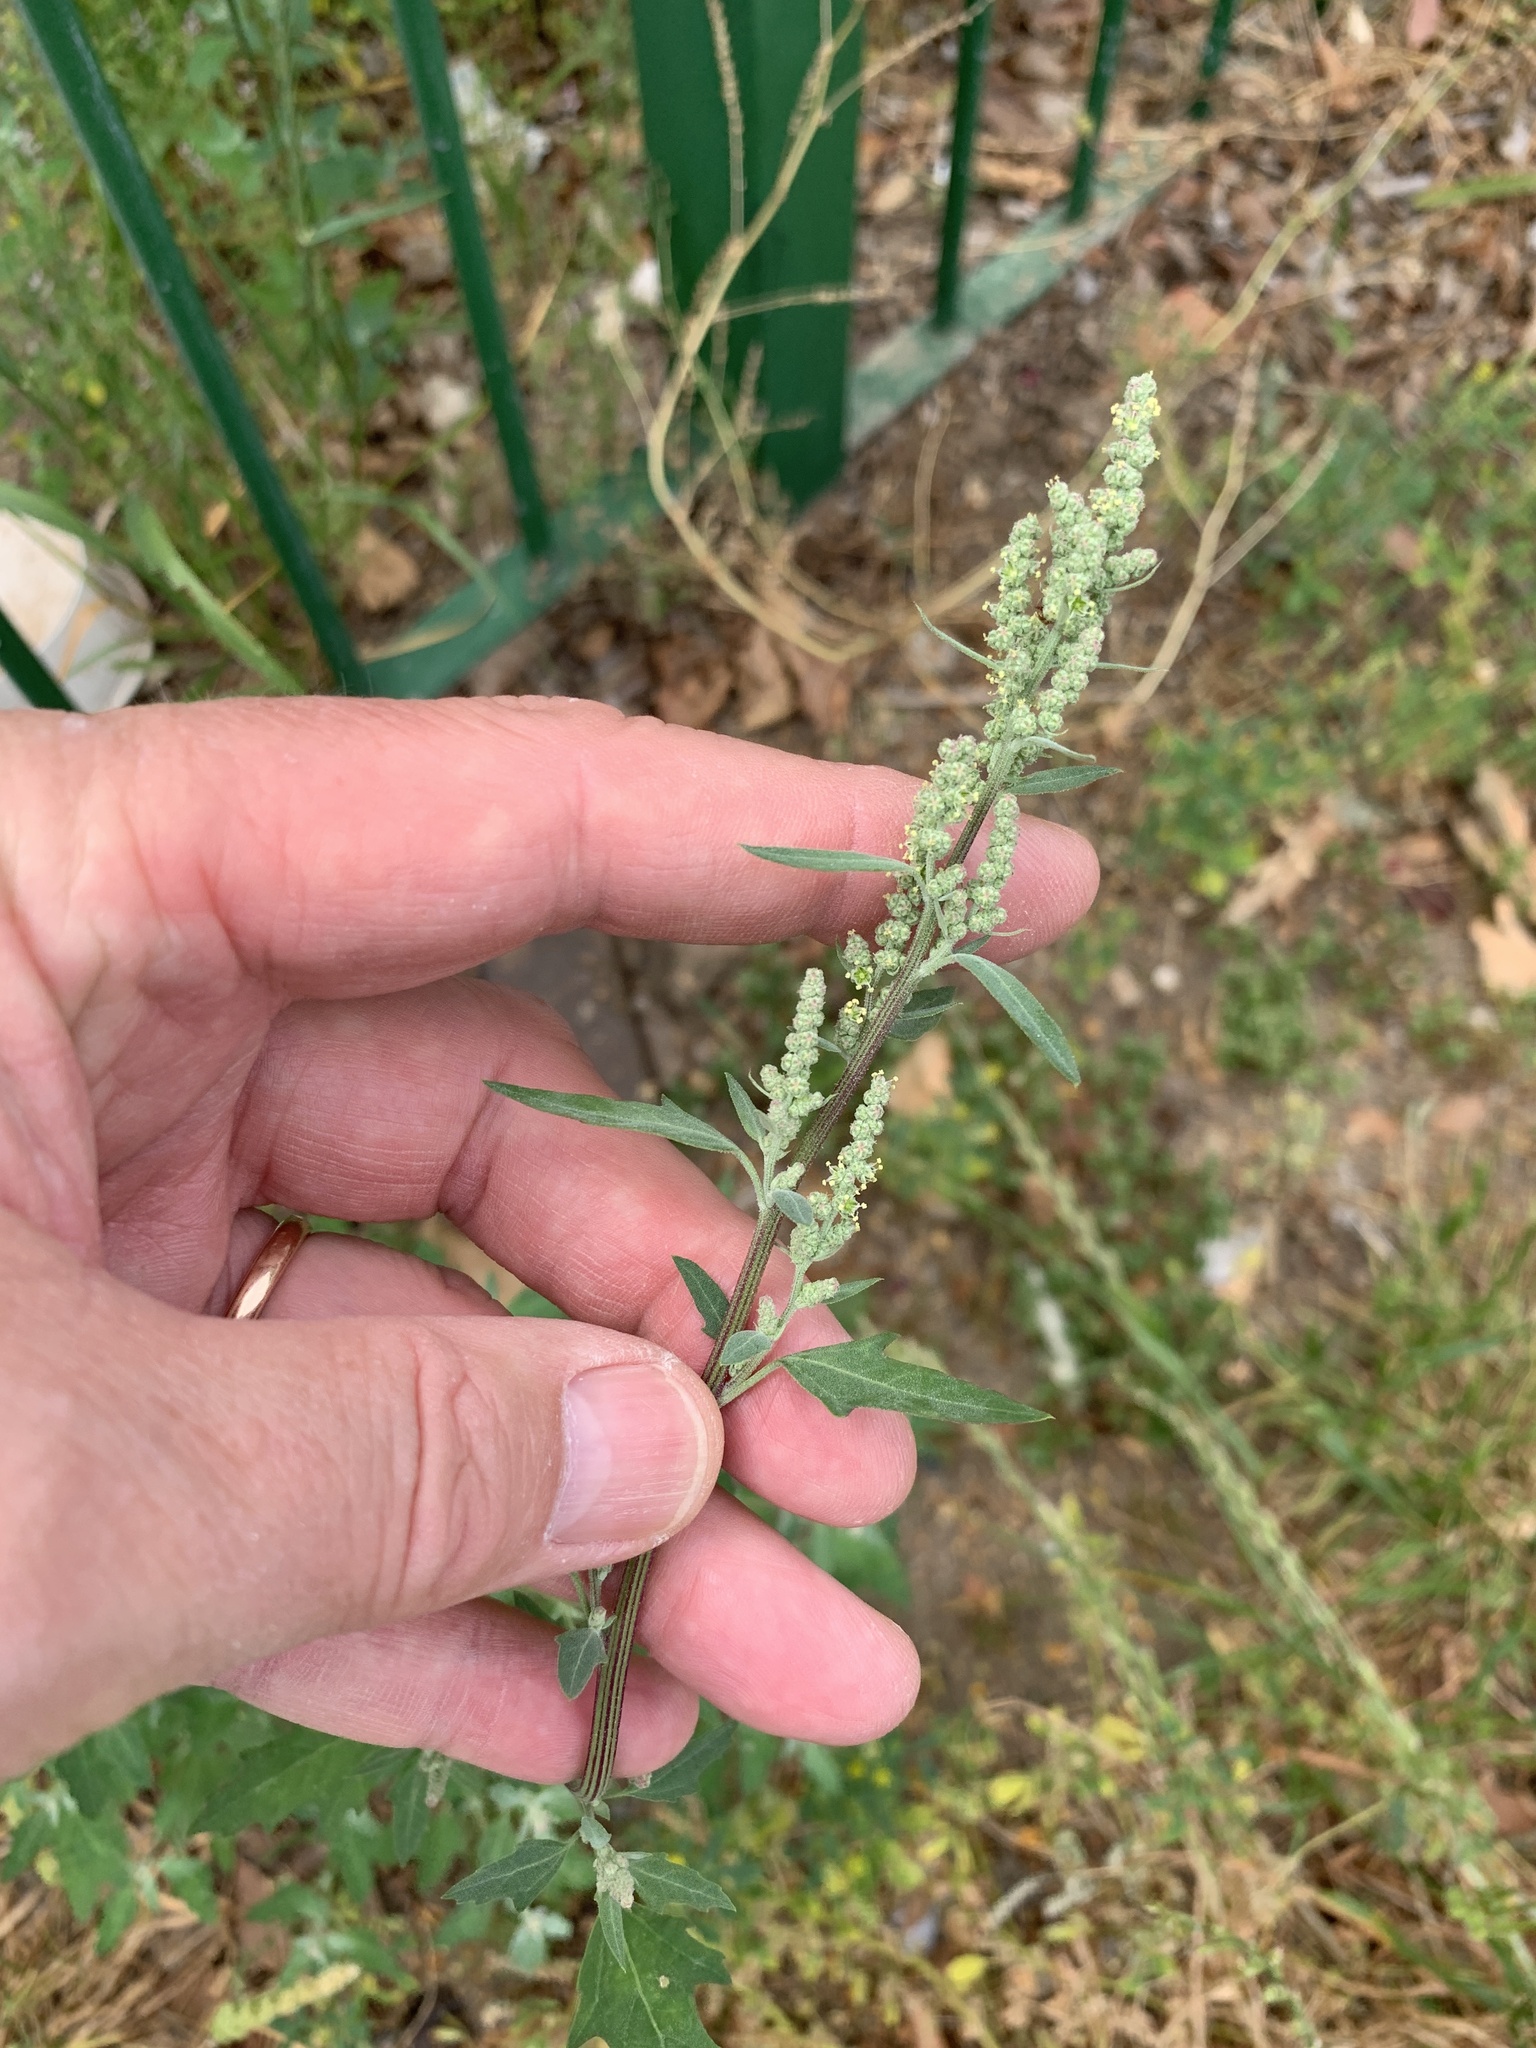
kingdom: Plantae
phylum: Tracheophyta
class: Magnoliopsida
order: Caryophyllales
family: Amaranthaceae
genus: Chenopodium
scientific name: Chenopodium album
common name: Fat-hen
